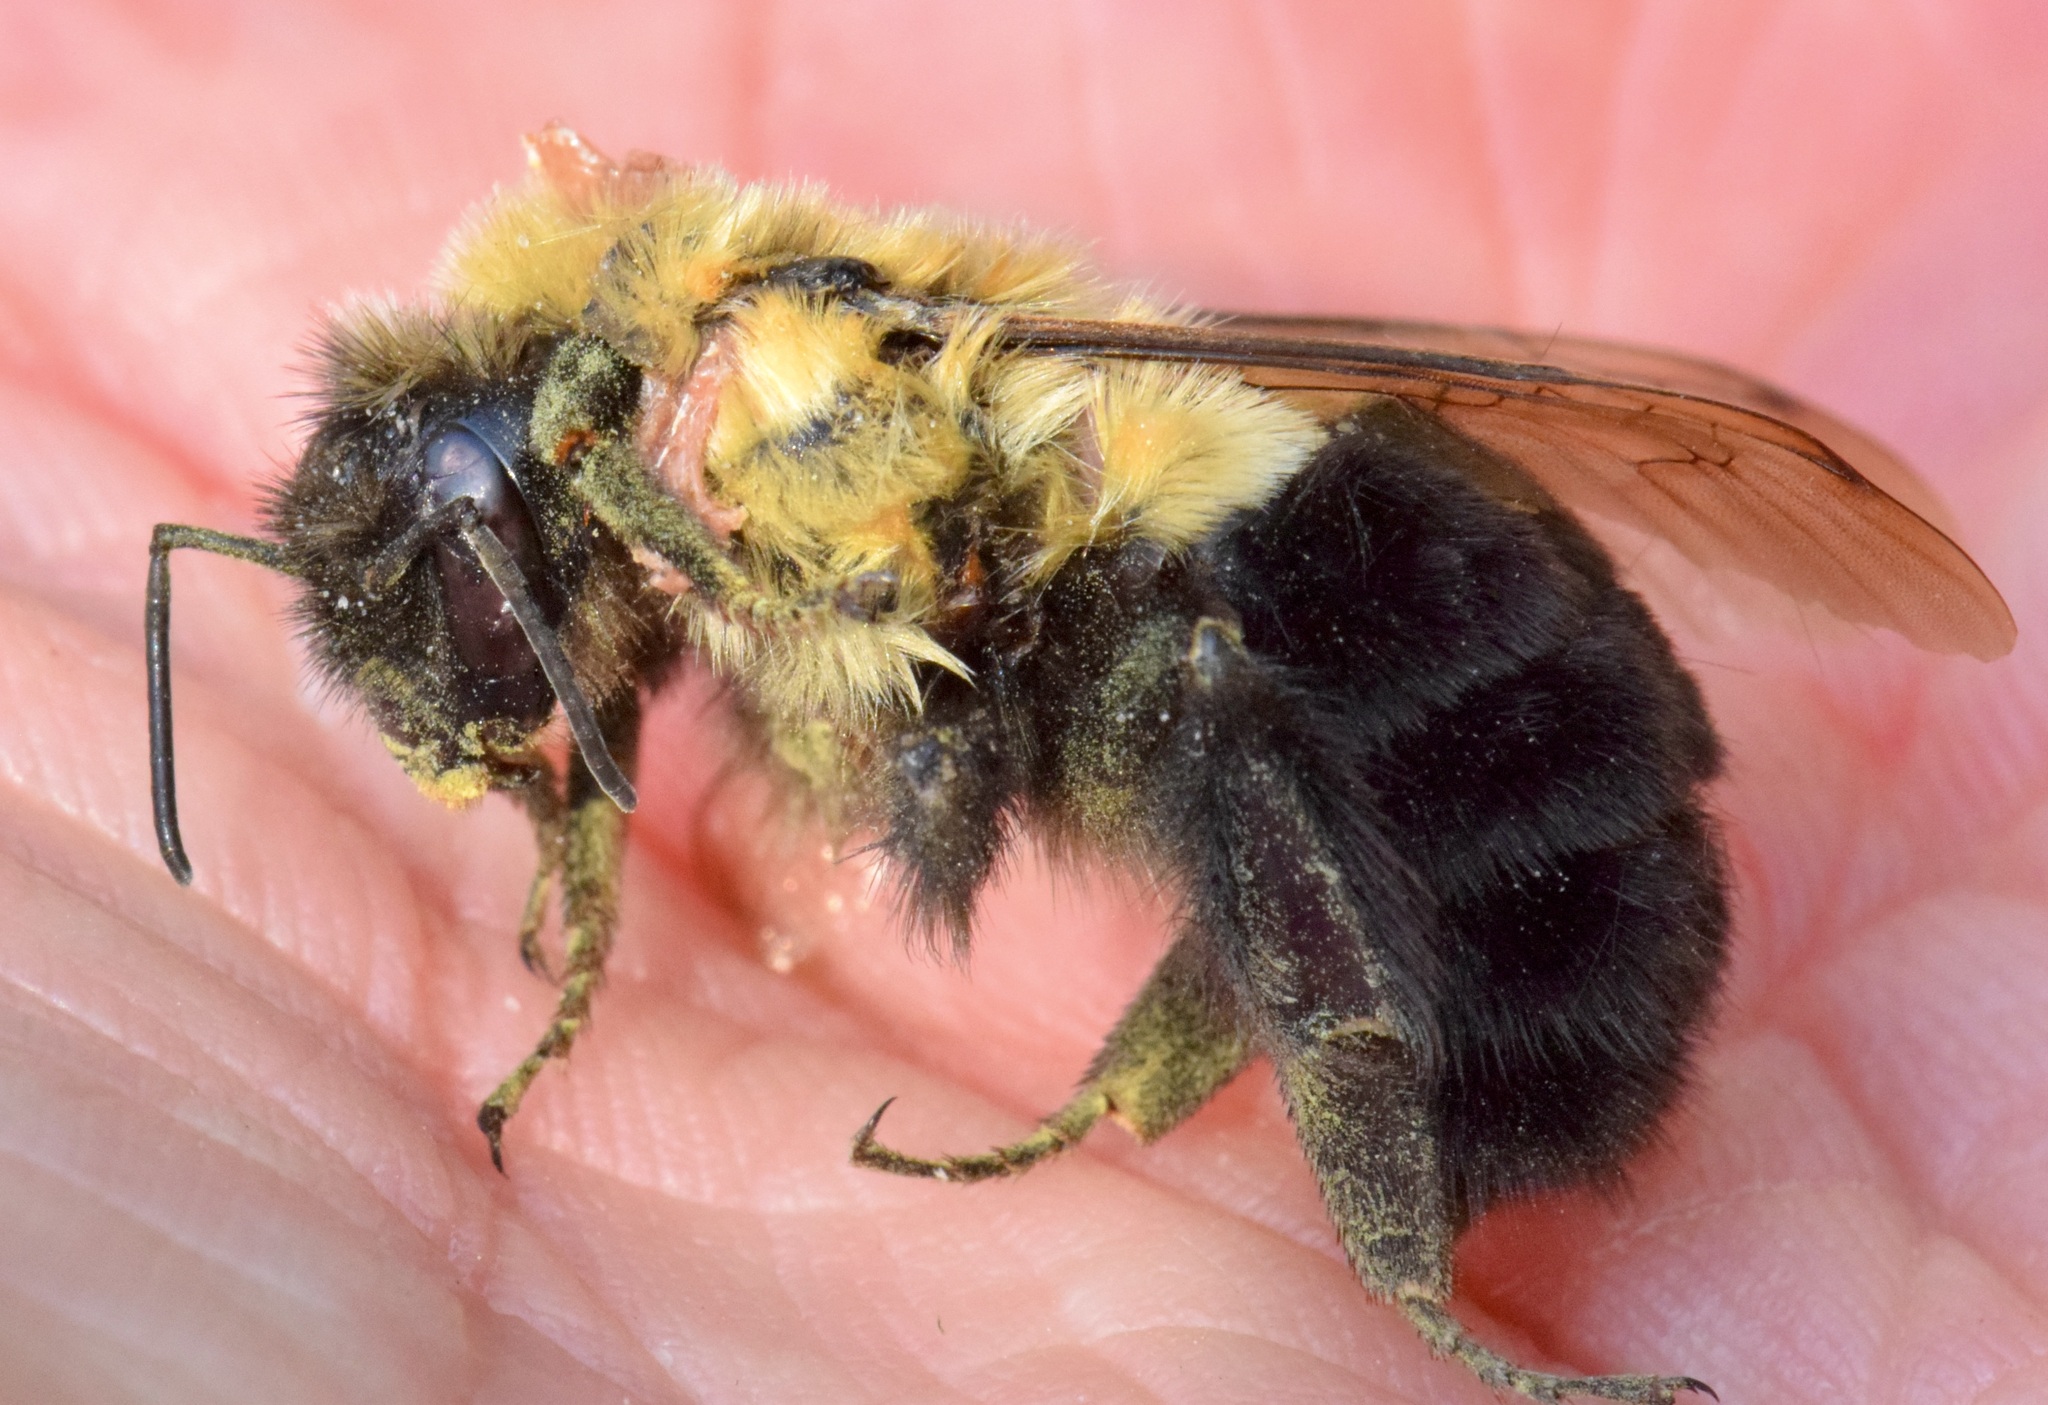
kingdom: Animalia
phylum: Arthropoda
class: Insecta
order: Hymenoptera
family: Apidae
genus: Bombus
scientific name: Bombus impatiens
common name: Common eastern bumble bee
